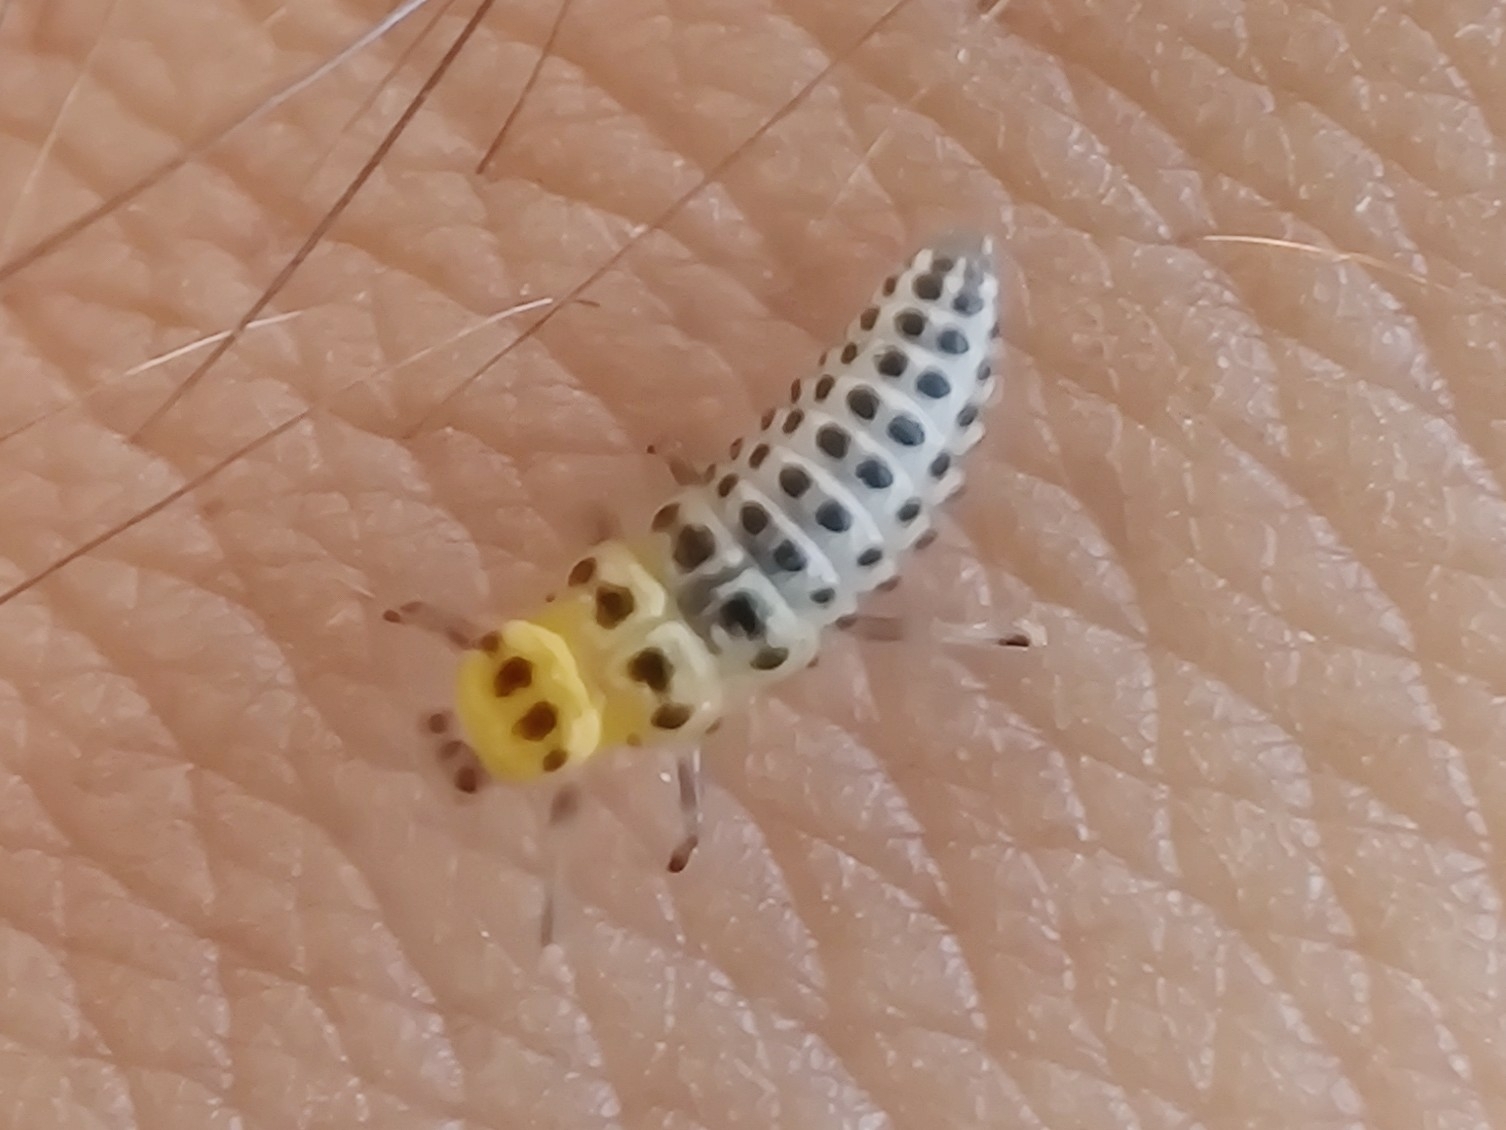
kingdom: Animalia
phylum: Arthropoda
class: Insecta
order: Coleoptera
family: Coccinellidae
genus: Illeis
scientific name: Illeis galbula
